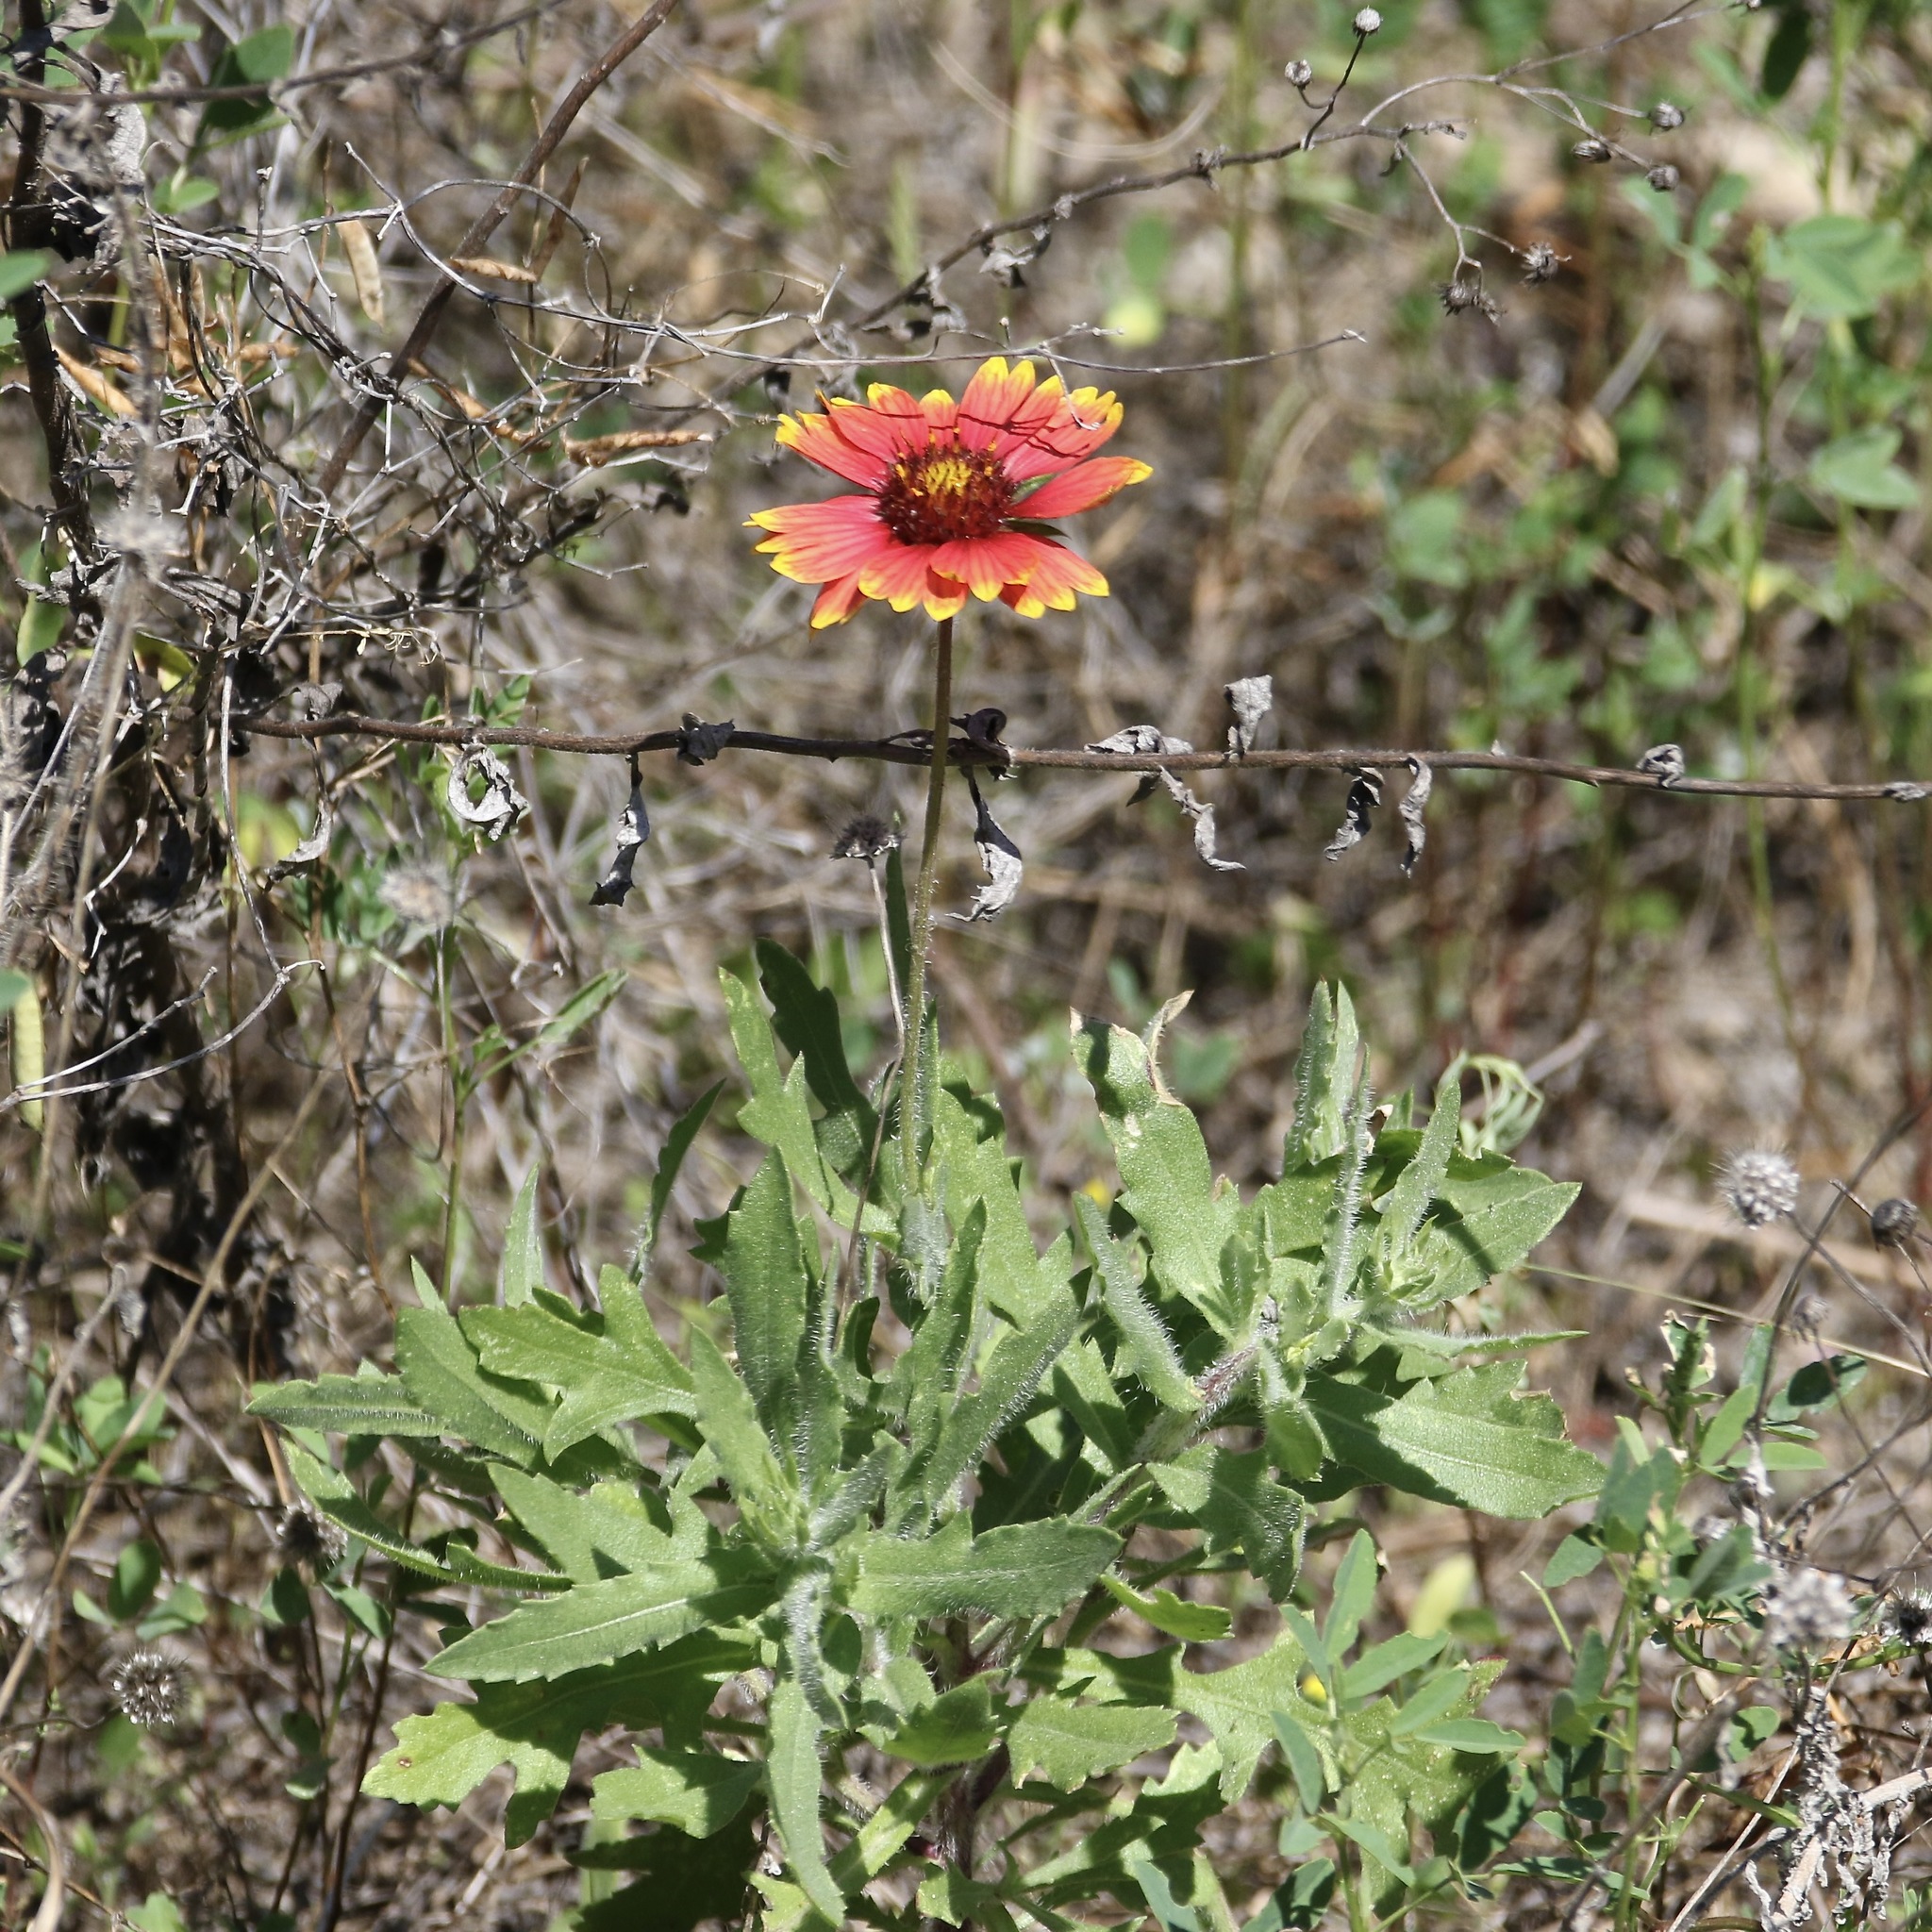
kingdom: Plantae
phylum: Tracheophyta
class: Magnoliopsida
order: Asterales
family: Asteraceae
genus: Gaillardia
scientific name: Gaillardia pulchella
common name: Firewheel
